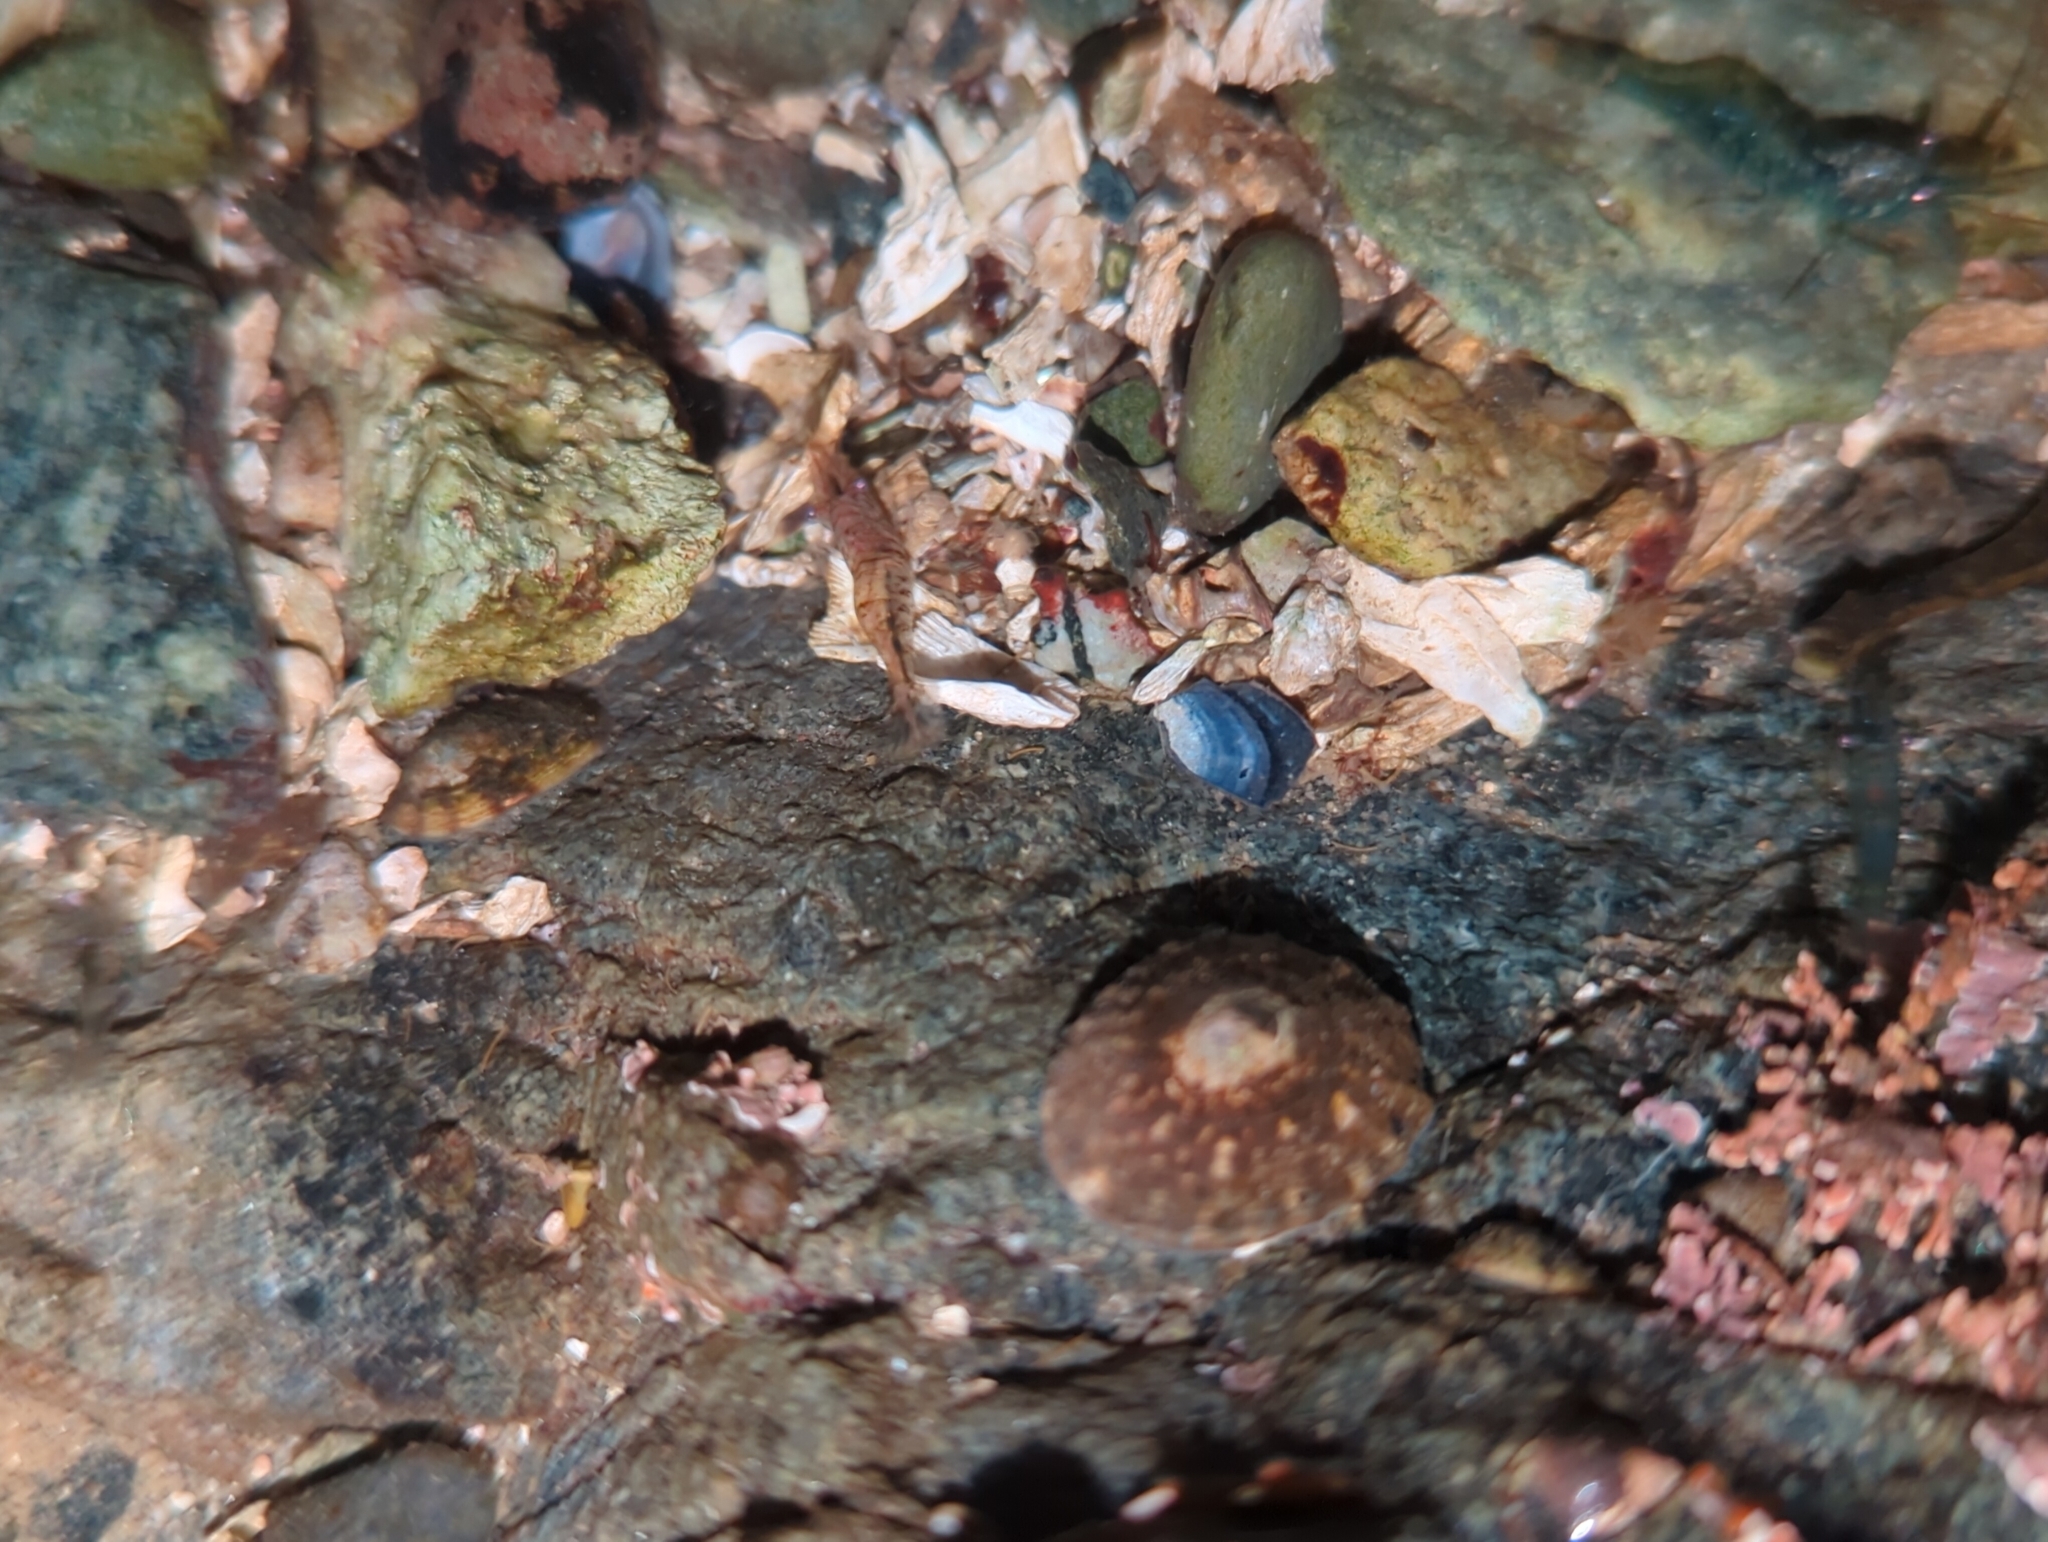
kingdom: Animalia
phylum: Arthropoda
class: Malacostraca
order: Decapoda
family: Thoridae
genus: Heptacarpus
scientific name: Heptacarpus sitchensis
